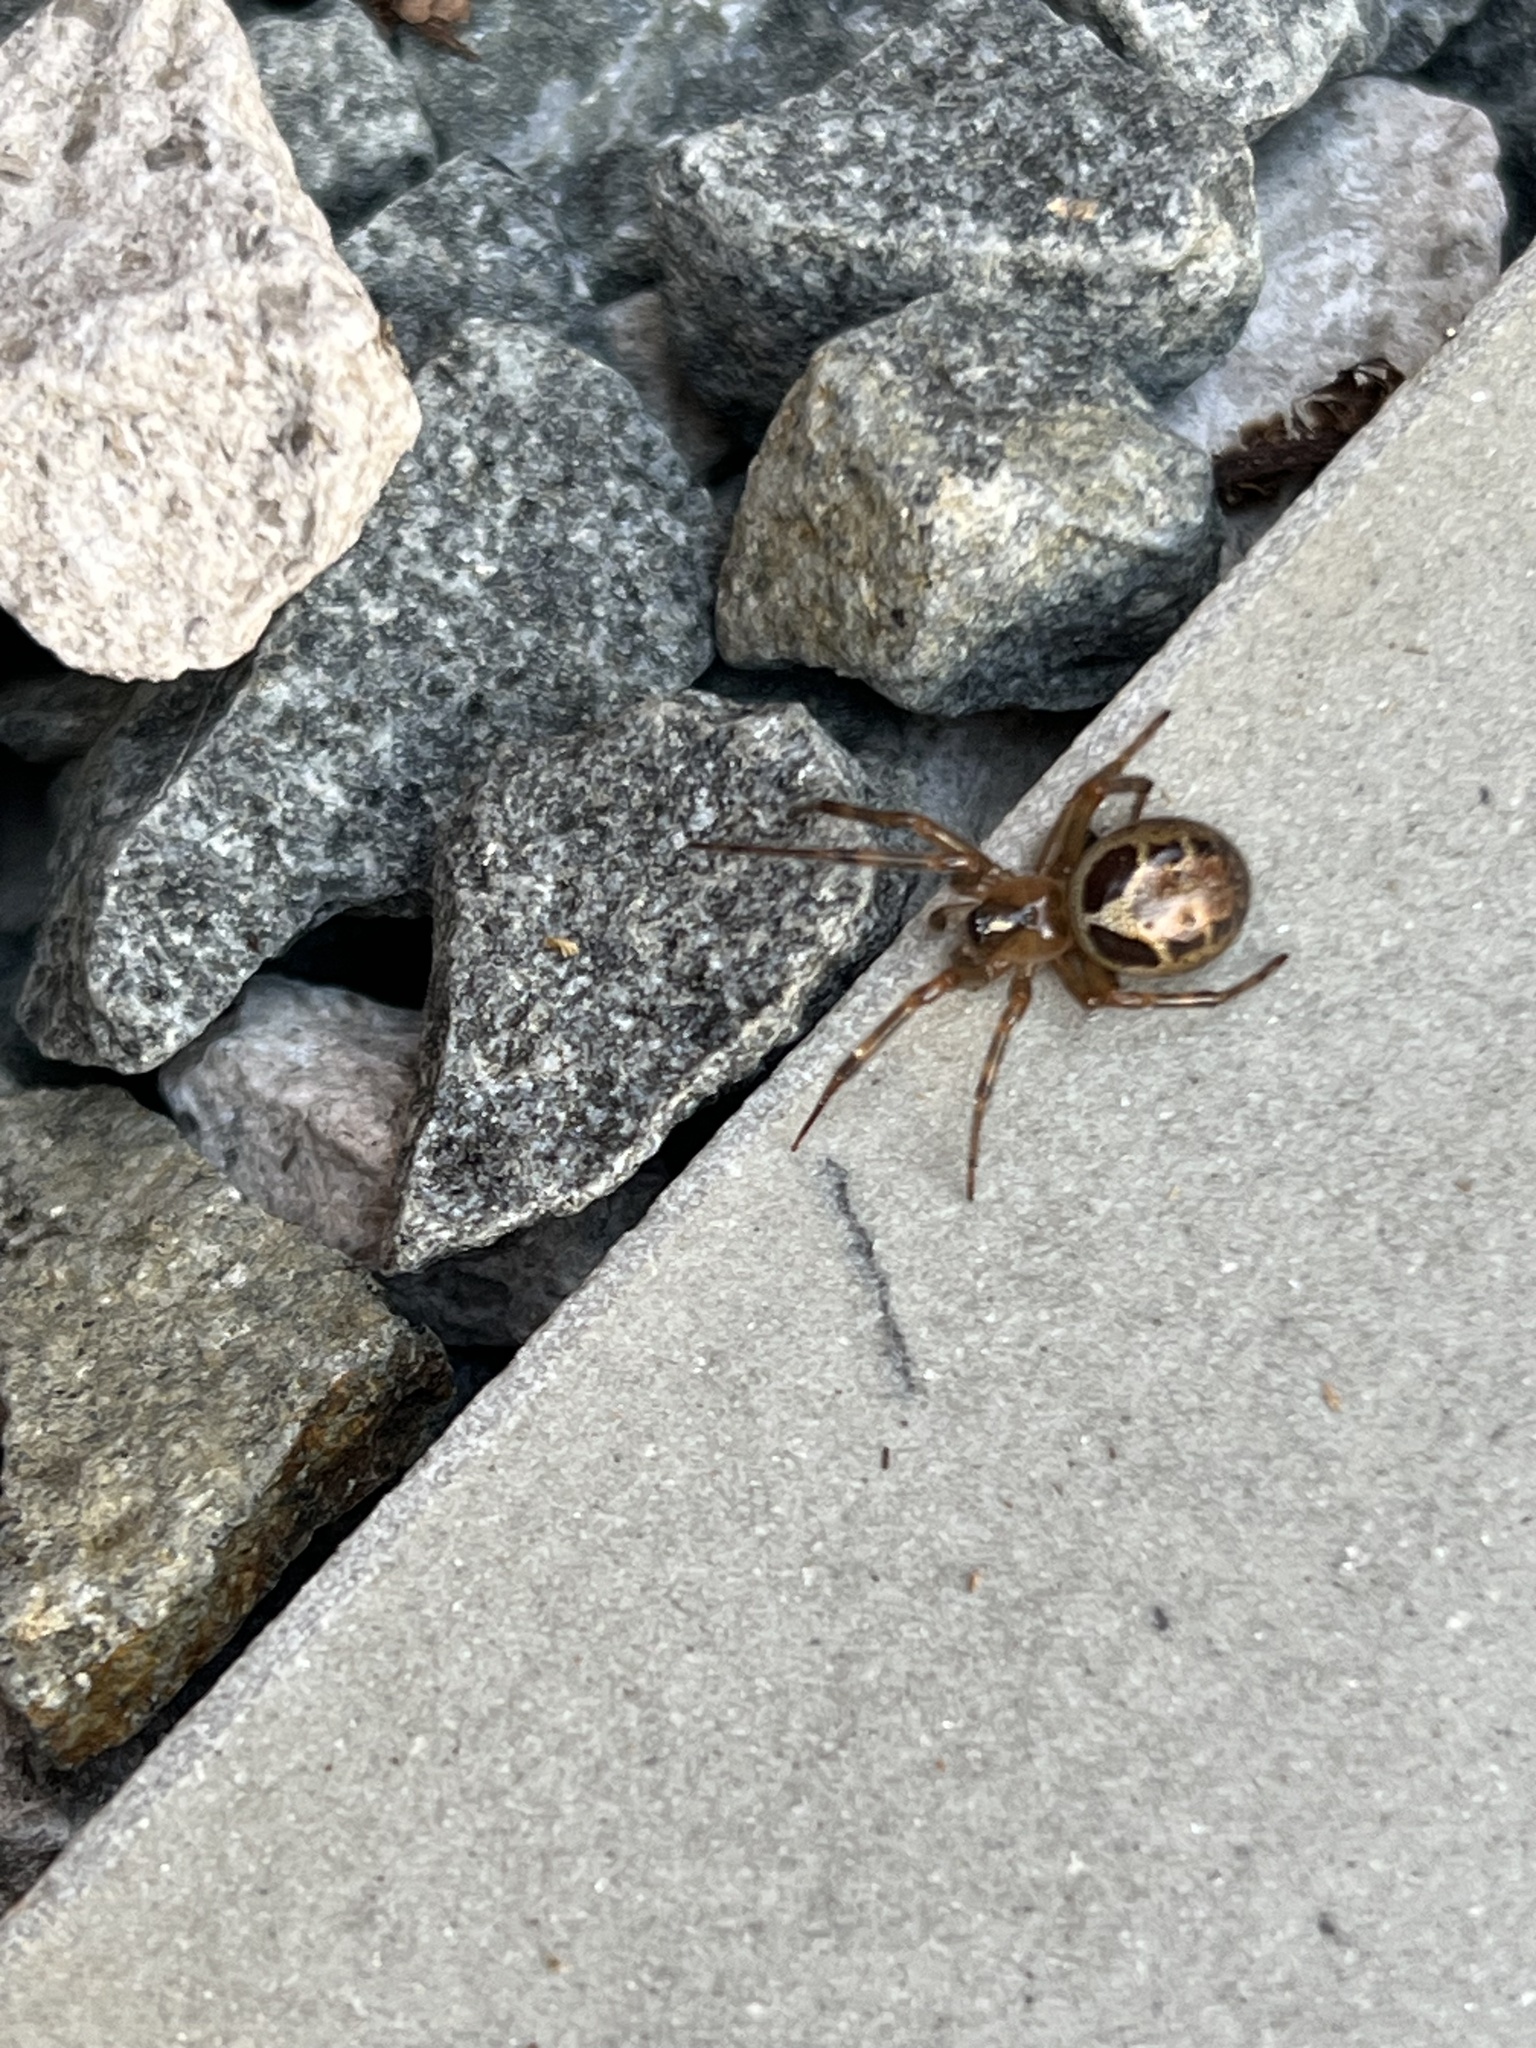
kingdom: Animalia
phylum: Arthropoda
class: Arachnida
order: Araneae
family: Theridiidae
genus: Steatoda
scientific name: Steatoda nobilis
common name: Cobweb weaver
